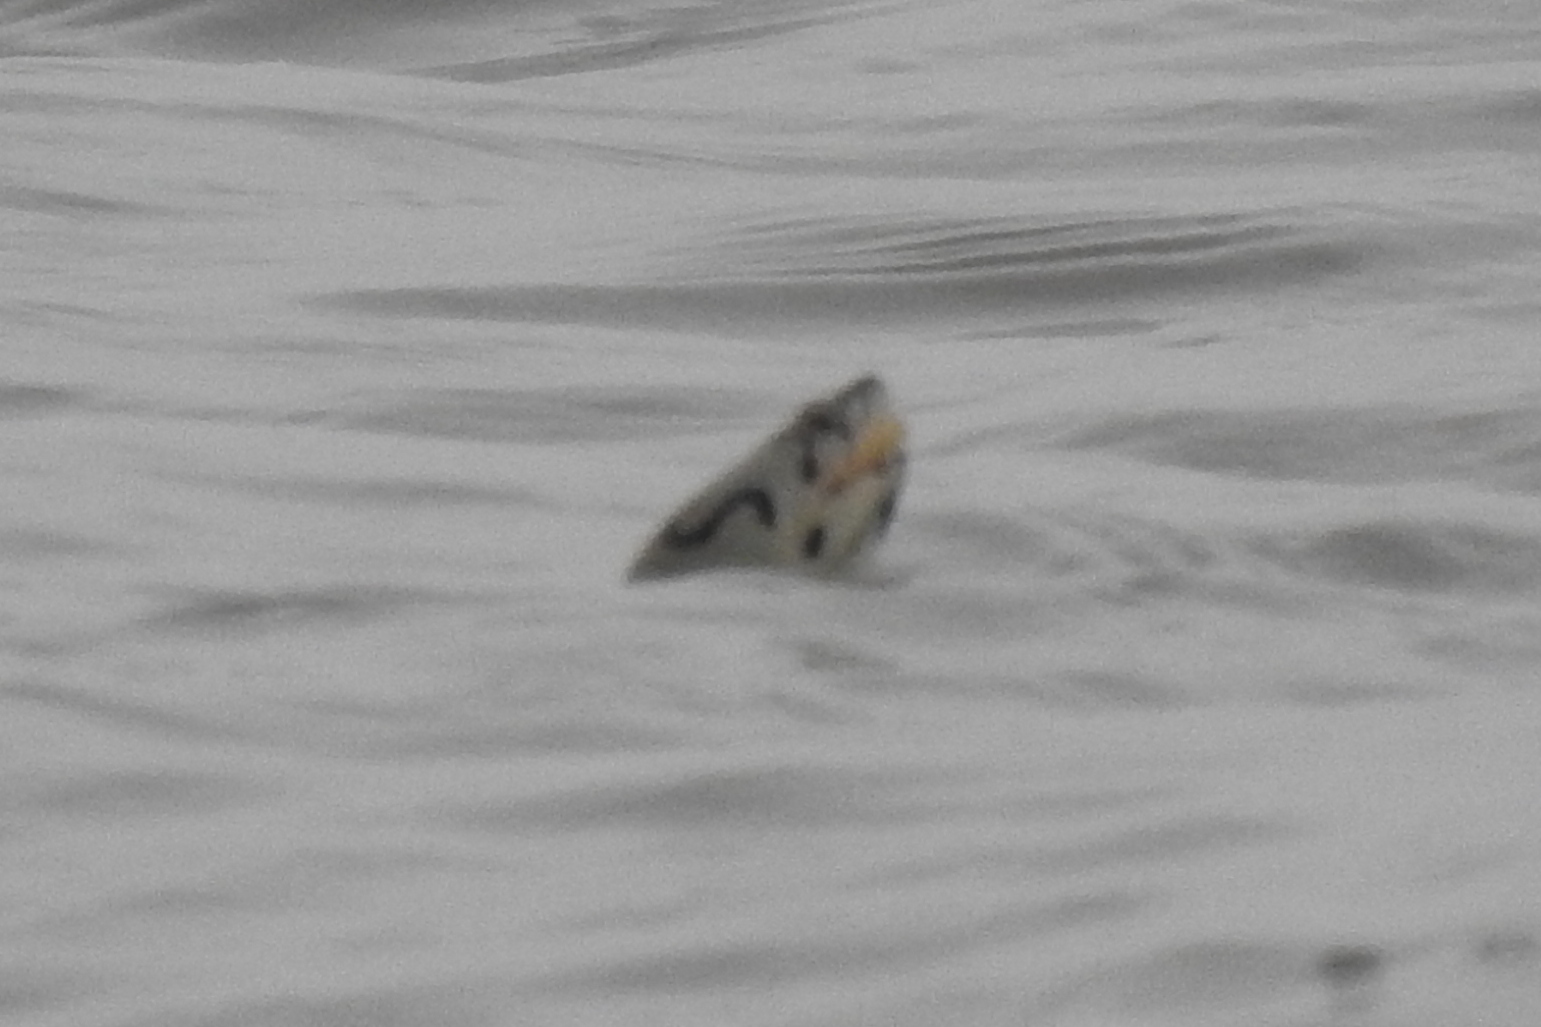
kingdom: Animalia
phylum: Chordata
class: Testudines
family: Emydidae
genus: Malaclemys
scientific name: Malaclemys terrapin
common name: Diamondback terrapin
